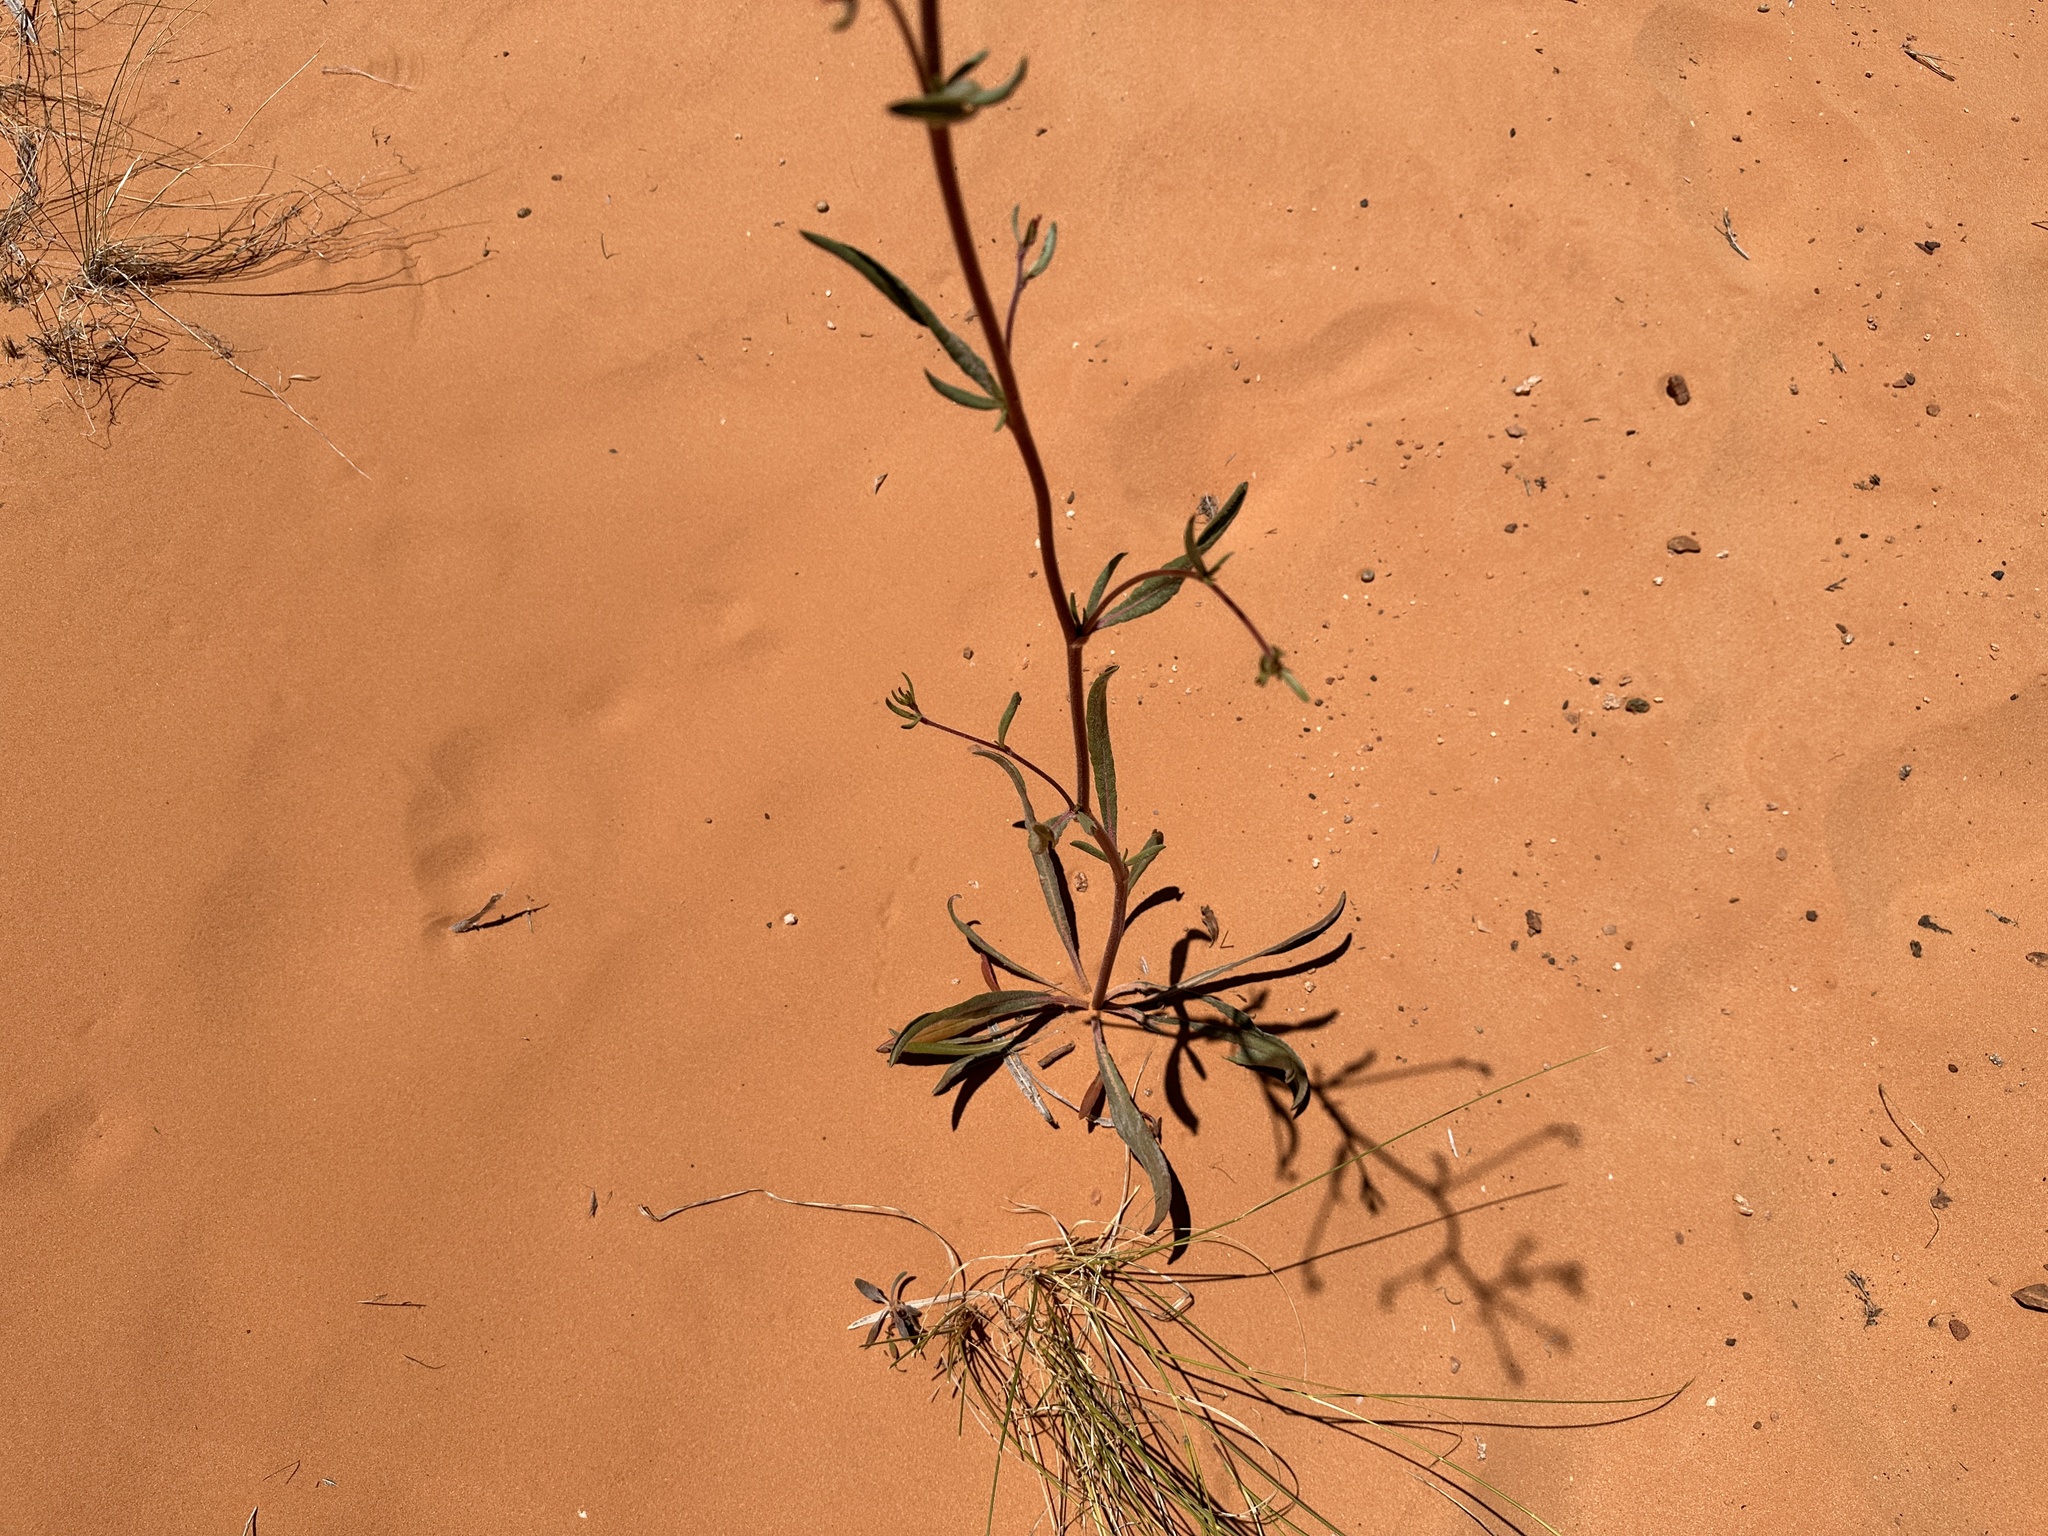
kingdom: Plantae
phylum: Tracheophyta
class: Magnoliopsida
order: Caryophyllales
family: Polygonaceae
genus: Eriogonum
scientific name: Eriogonum alatum
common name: Winged eriogonum
